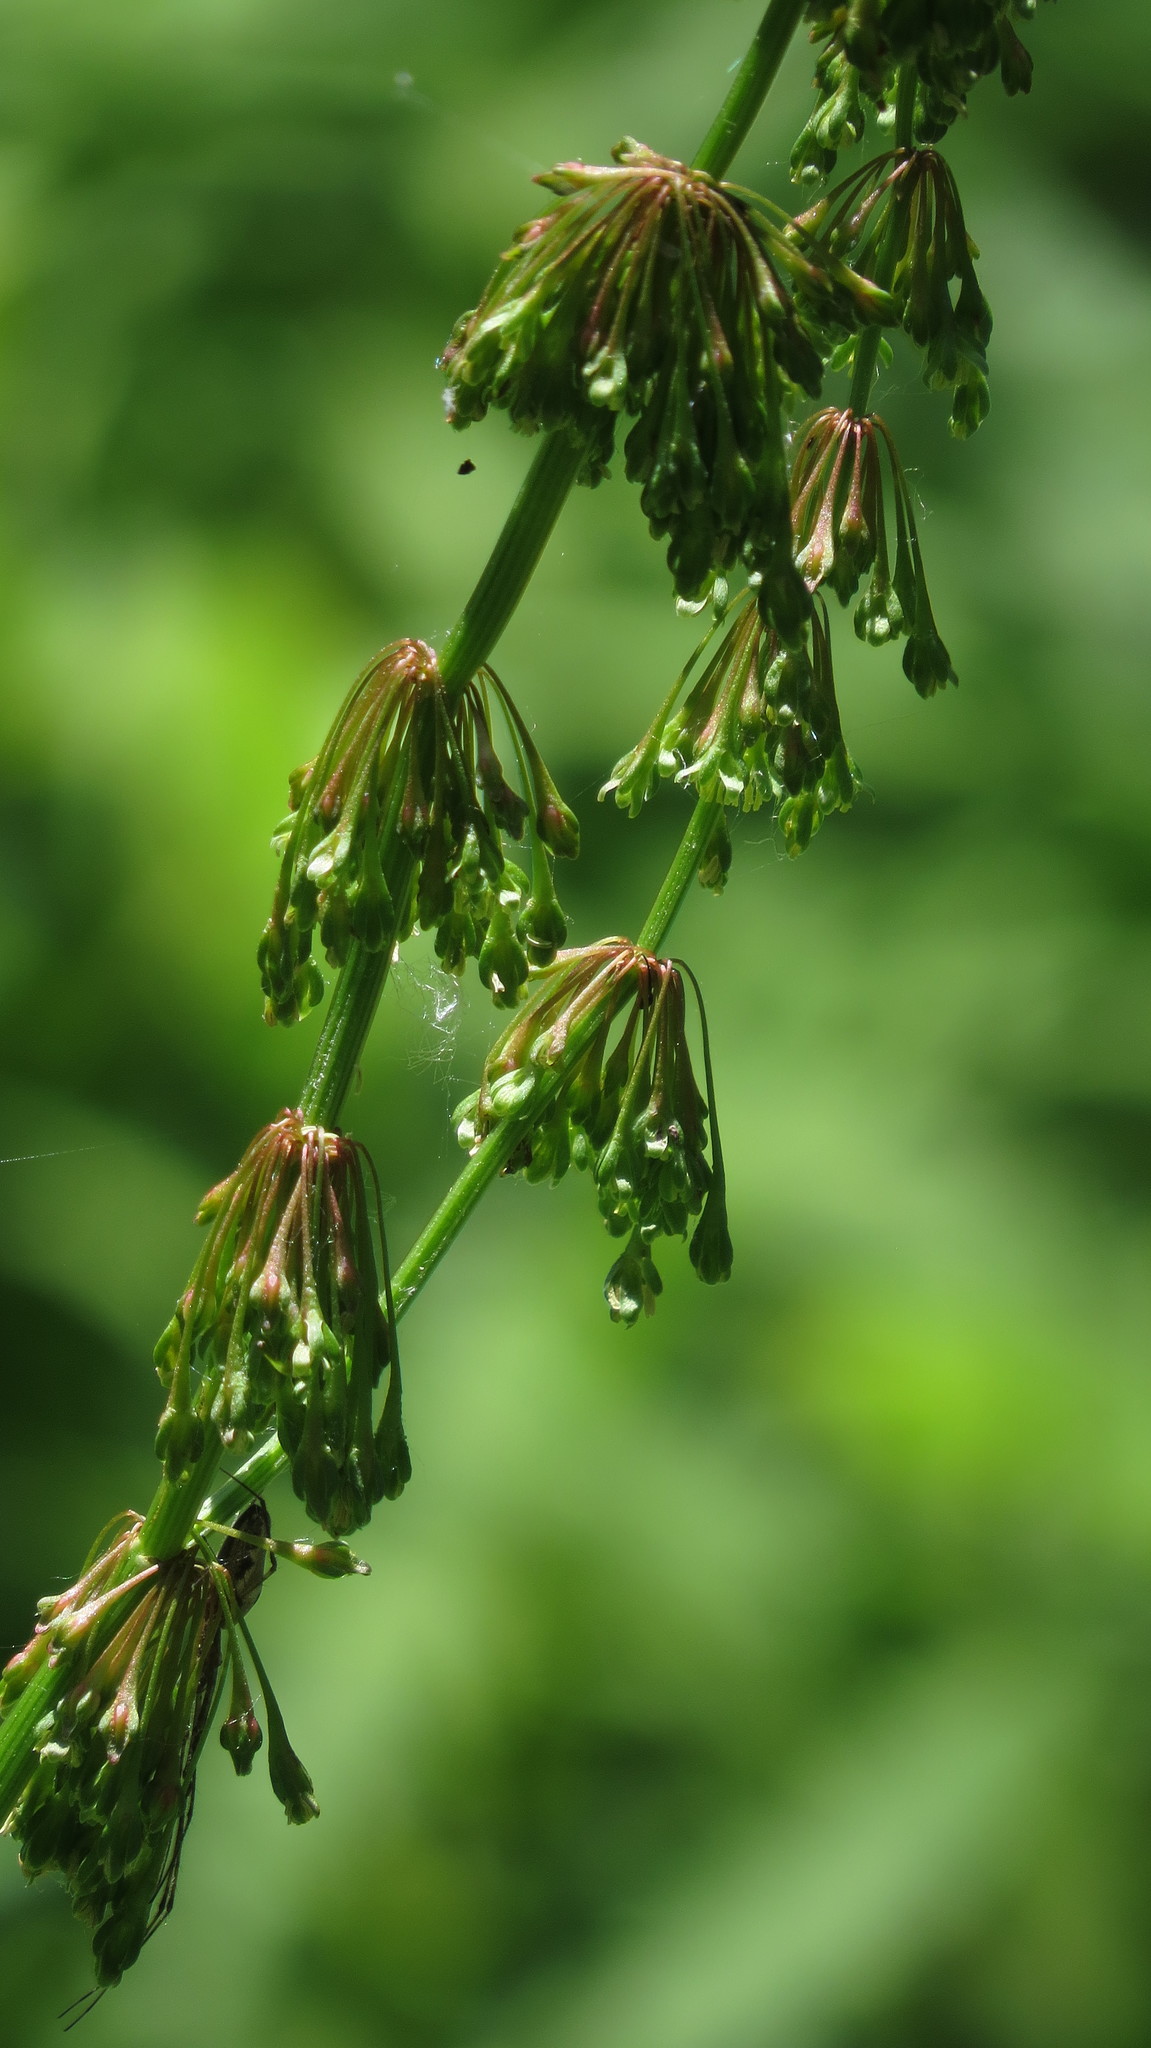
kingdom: Plantae
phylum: Tracheophyta
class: Magnoliopsida
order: Caryophyllales
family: Polygonaceae
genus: Rumex
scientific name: Rumex verticillatus
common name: Swamp dock
